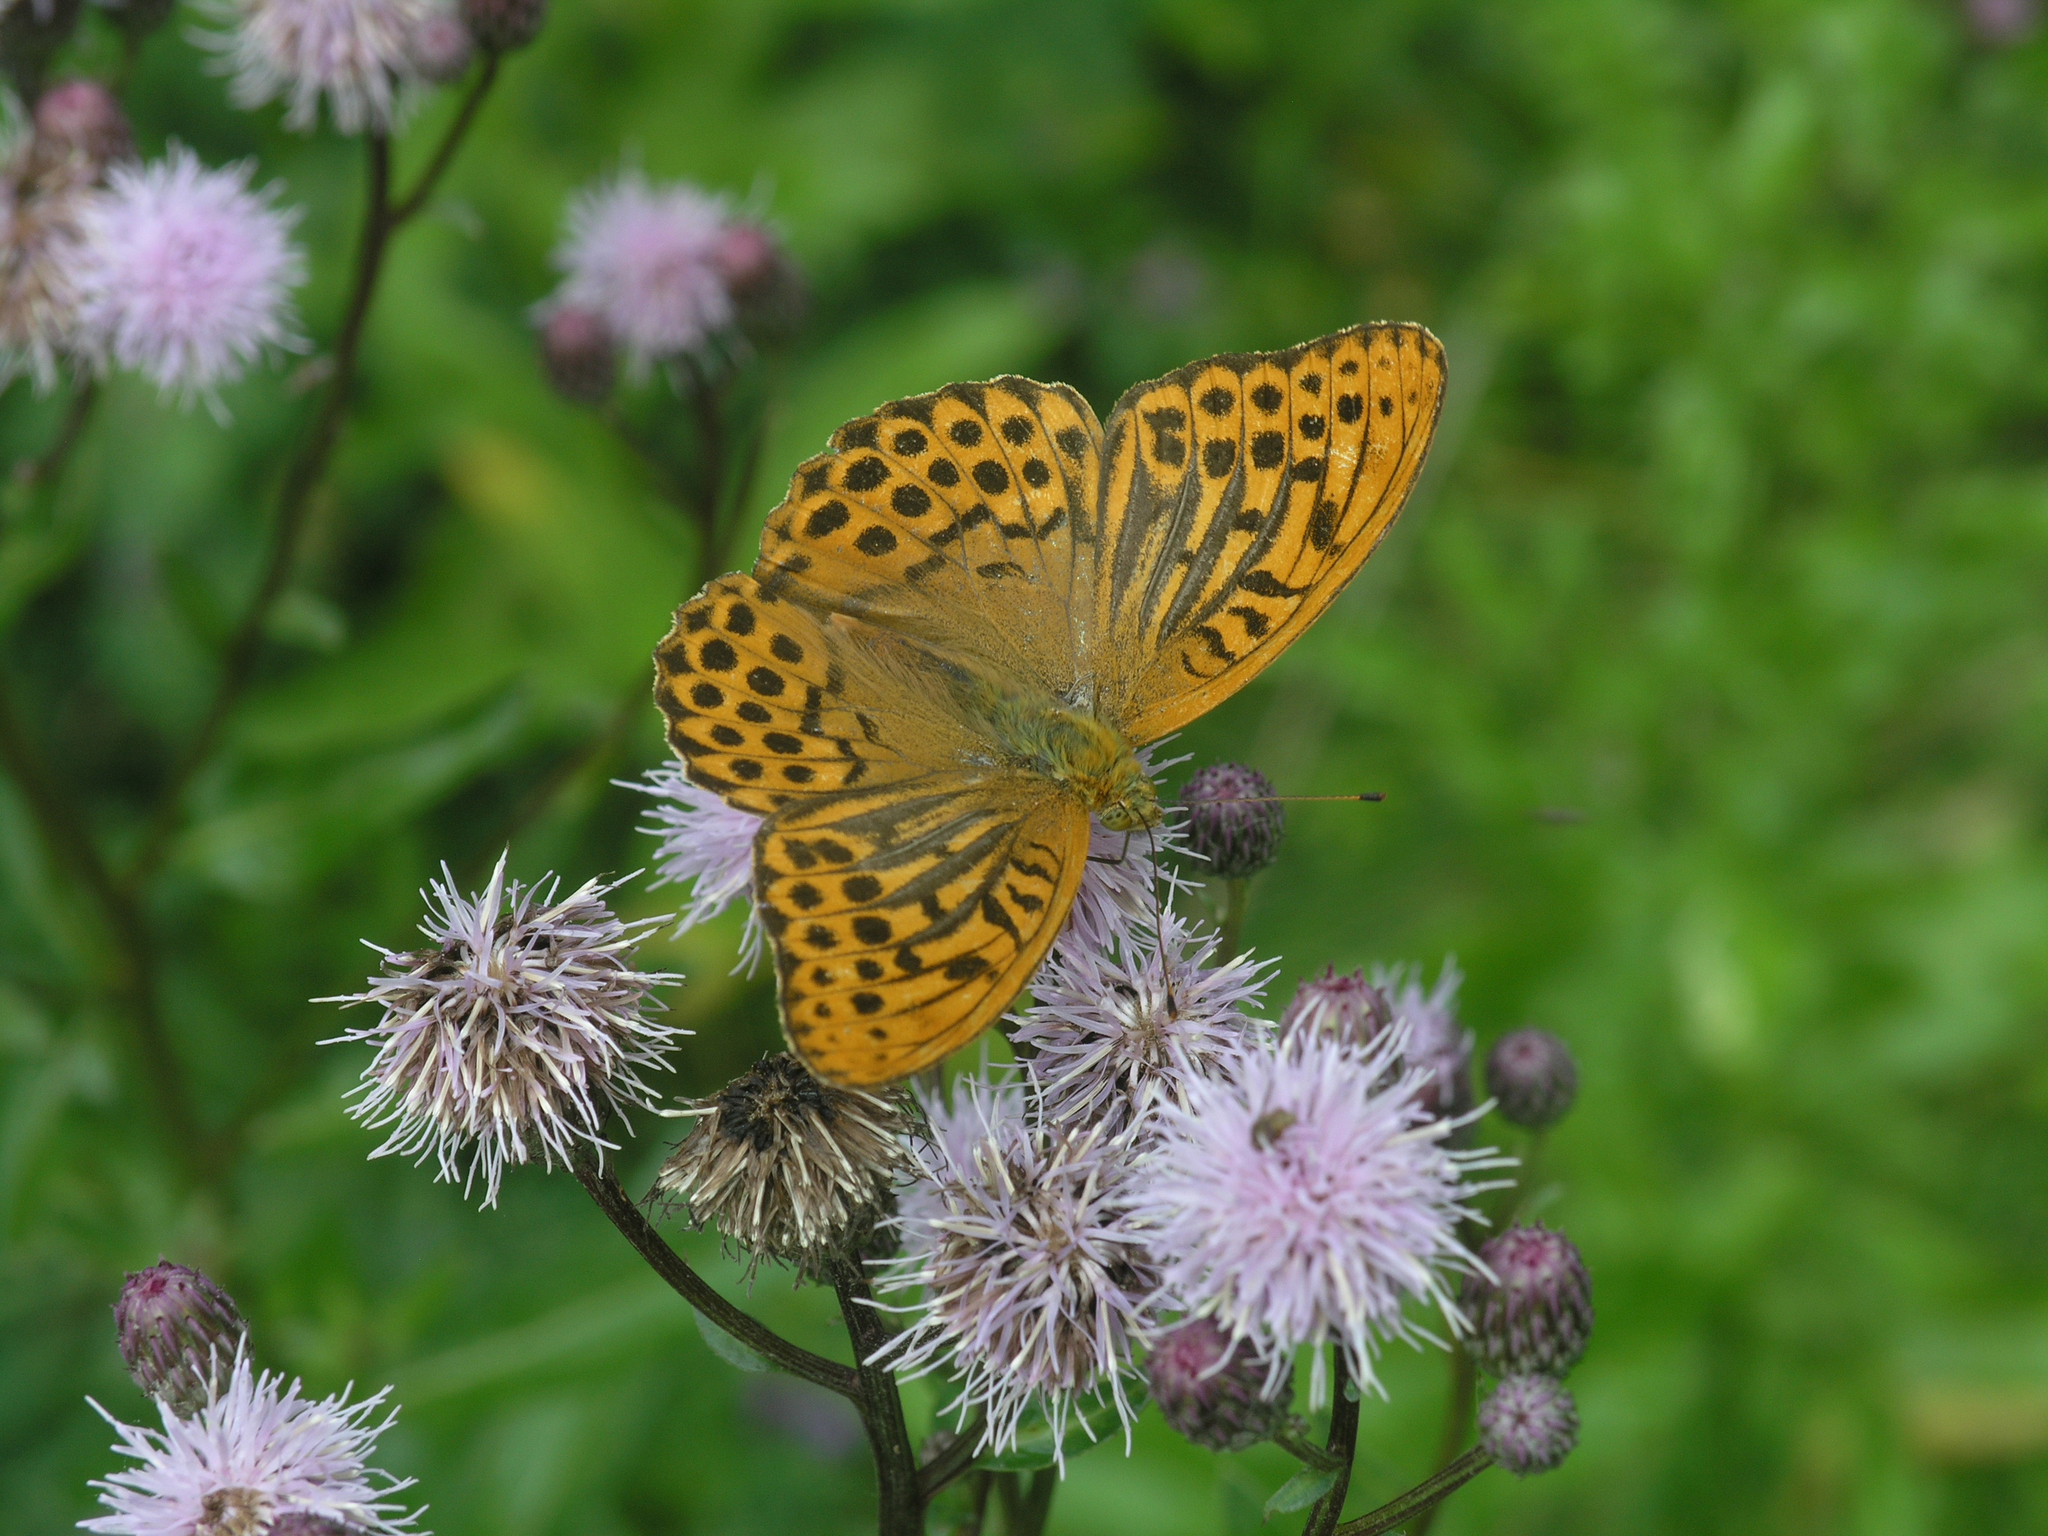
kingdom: Plantae
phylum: Tracheophyta
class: Magnoliopsida
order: Asterales
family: Asteraceae
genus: Cirsium
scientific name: Cirsium arvense
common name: Creeping thistle
